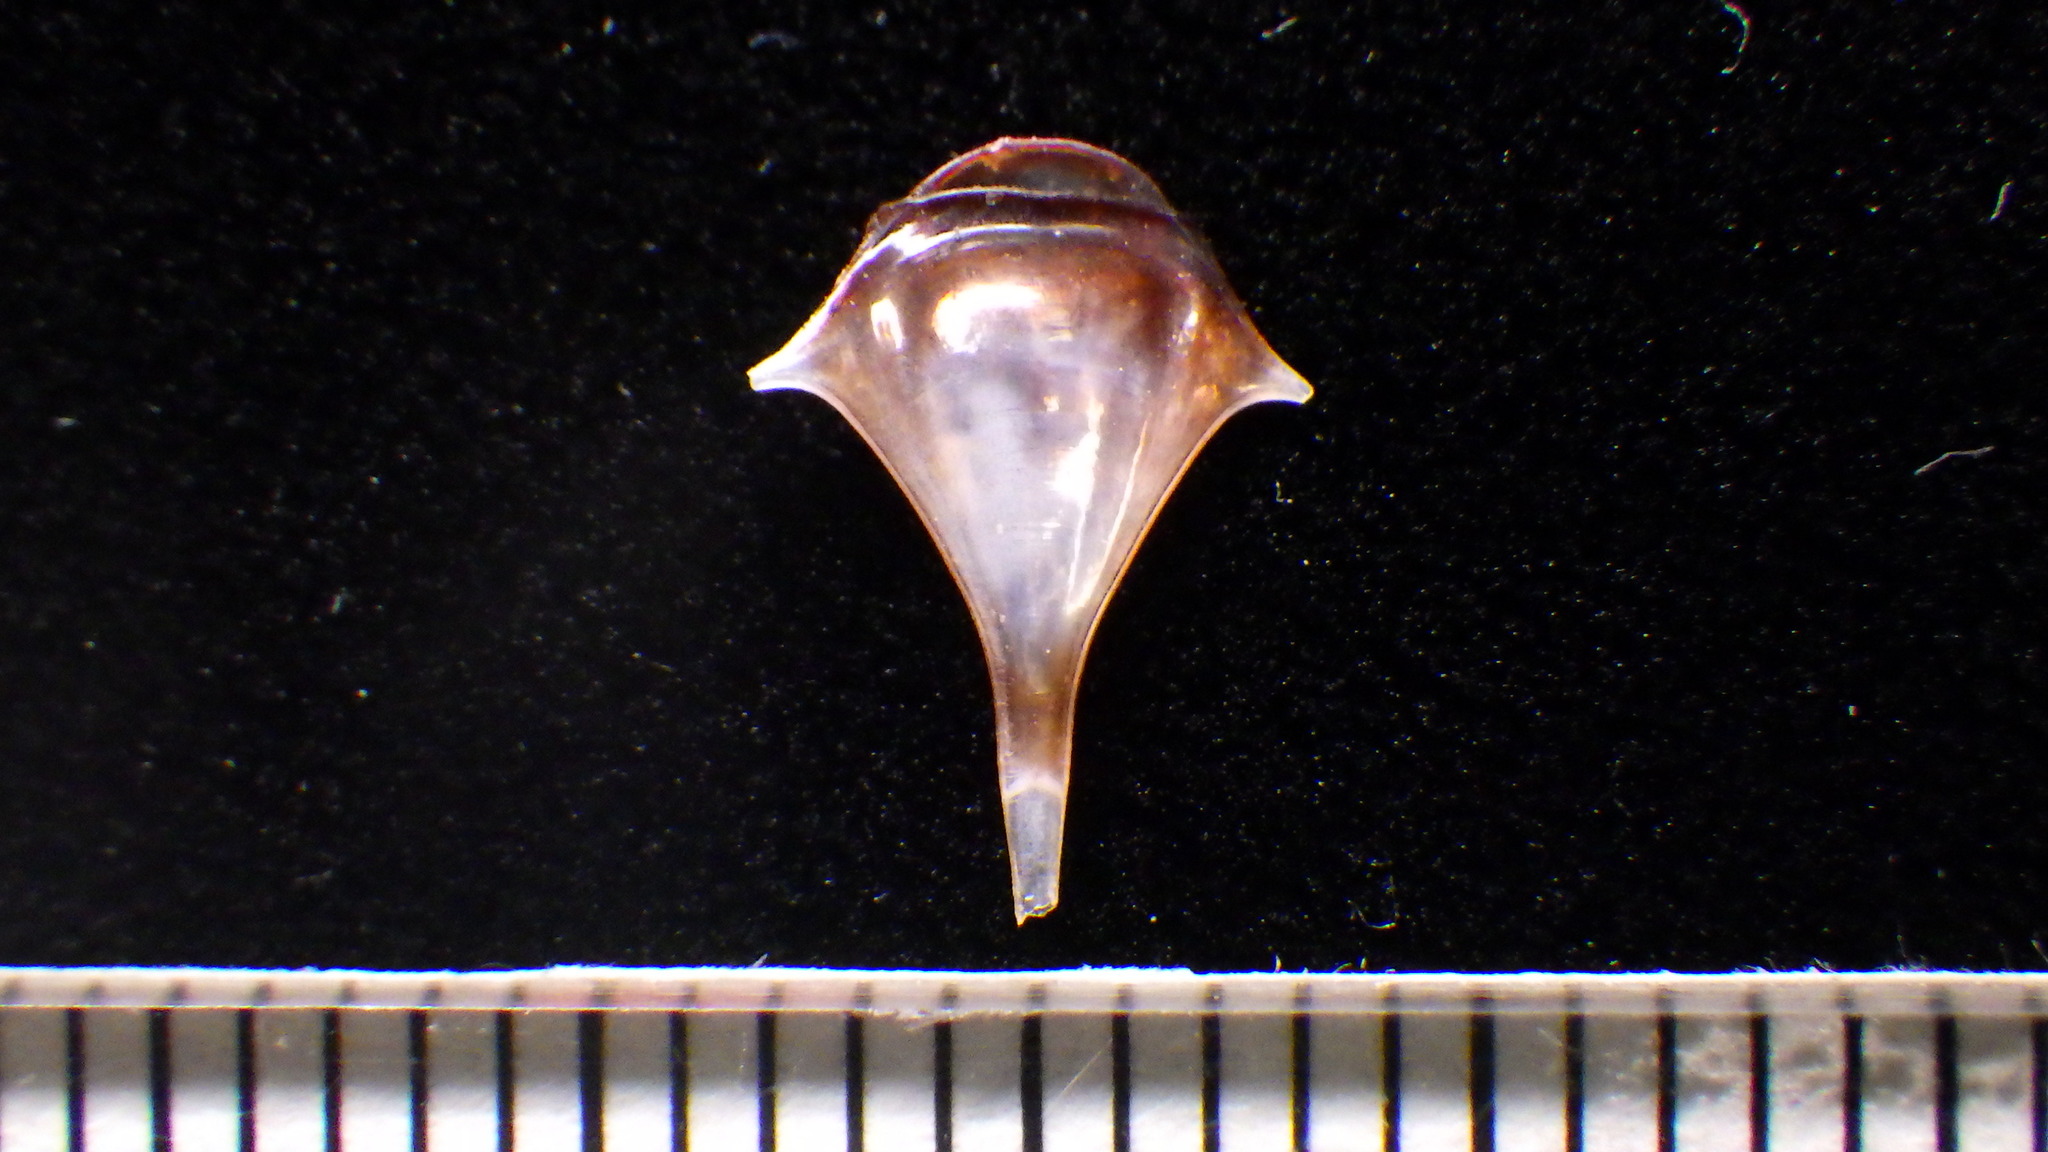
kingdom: Animalia
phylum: Mollusca
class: Gastropoda
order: Pteropoda
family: Cavoliniidae
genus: Diacria
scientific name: Diacria trispinosa
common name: Three-spine cavoline
